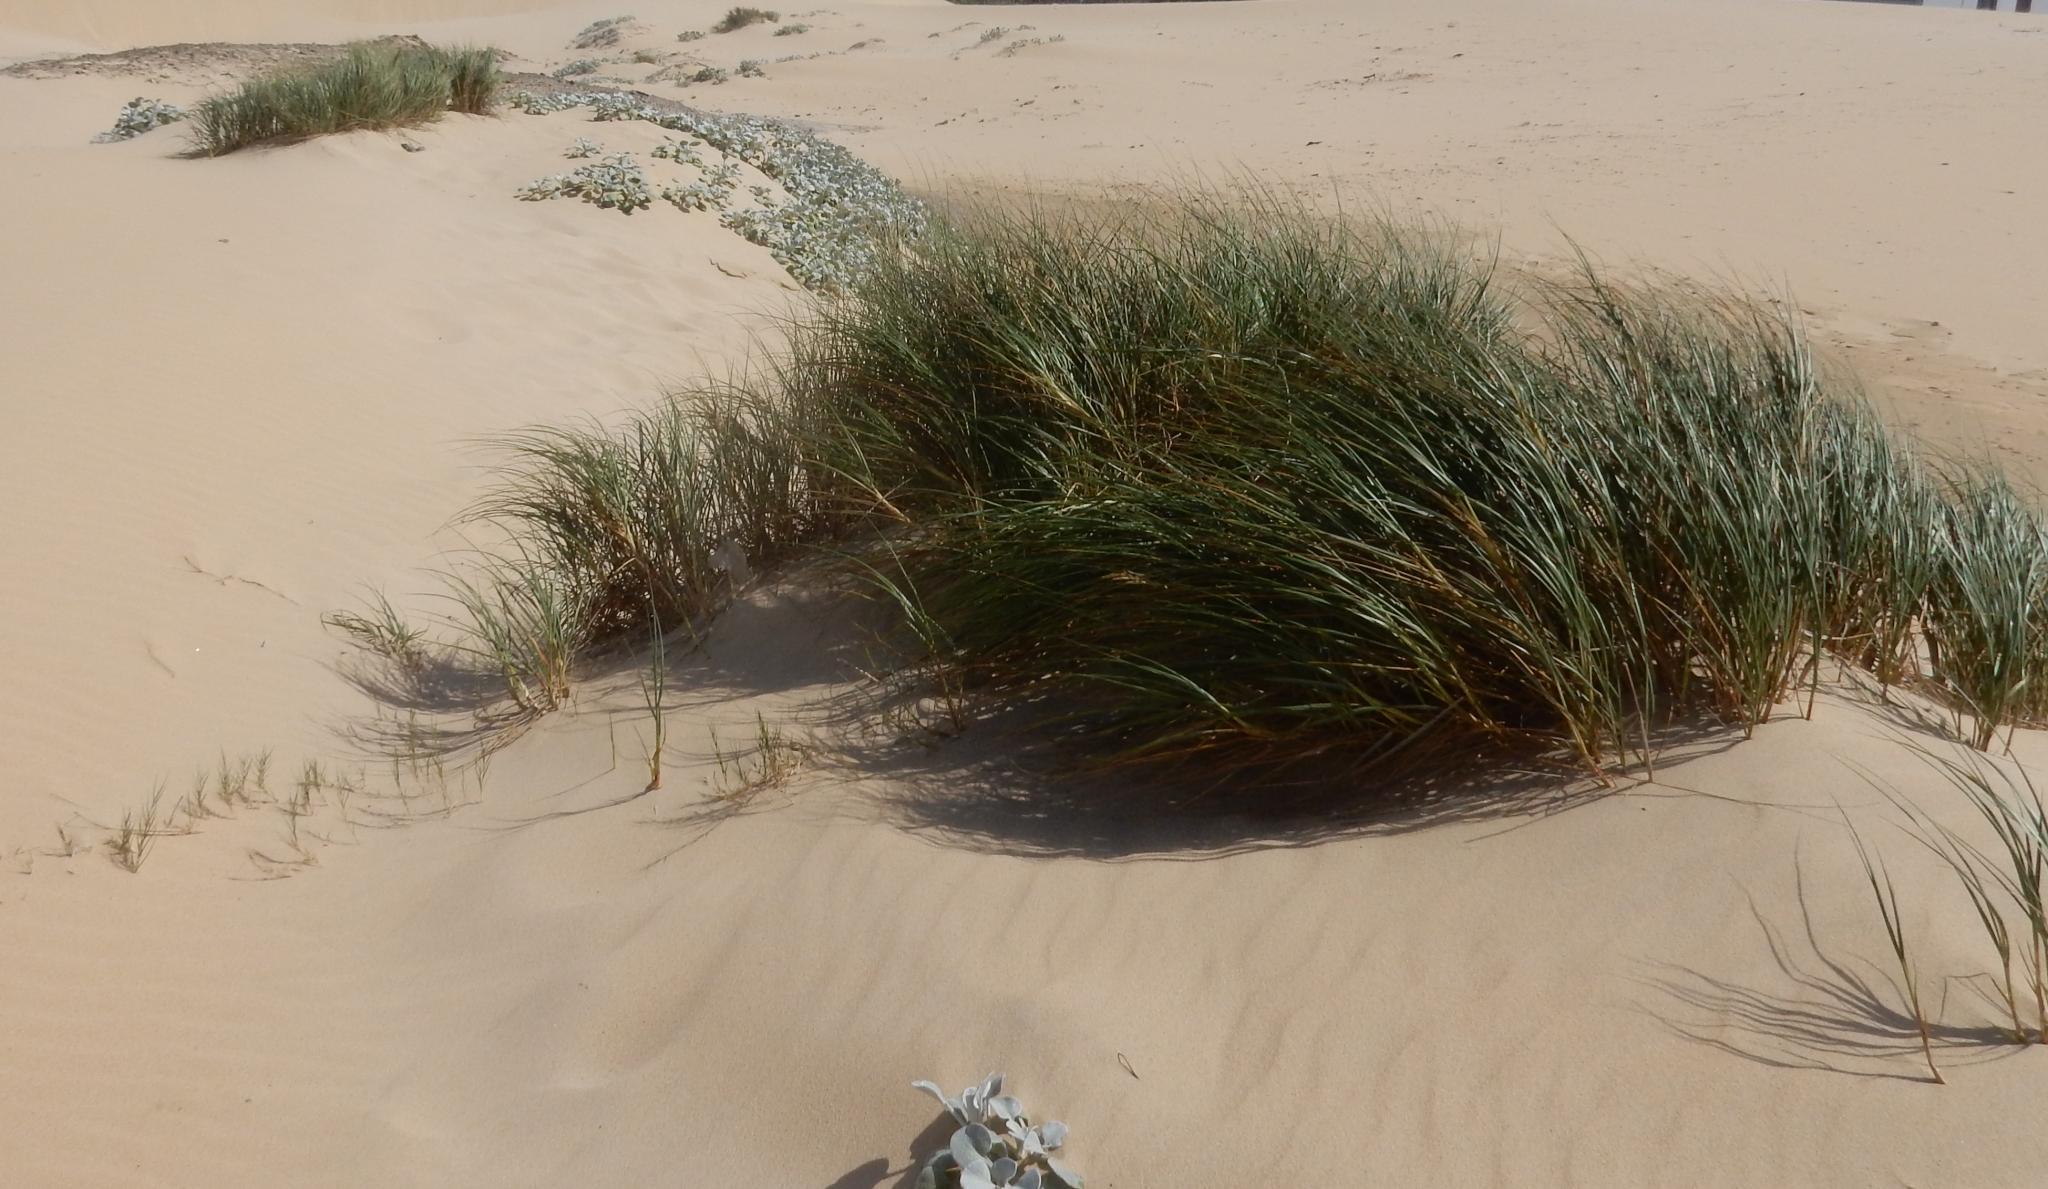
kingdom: Plantae
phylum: Tracheophyta
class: Liliopsida
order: Poales
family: Poaceae
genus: Calamagrostis
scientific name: Calamagrostis arenaria
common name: European beachgrass
